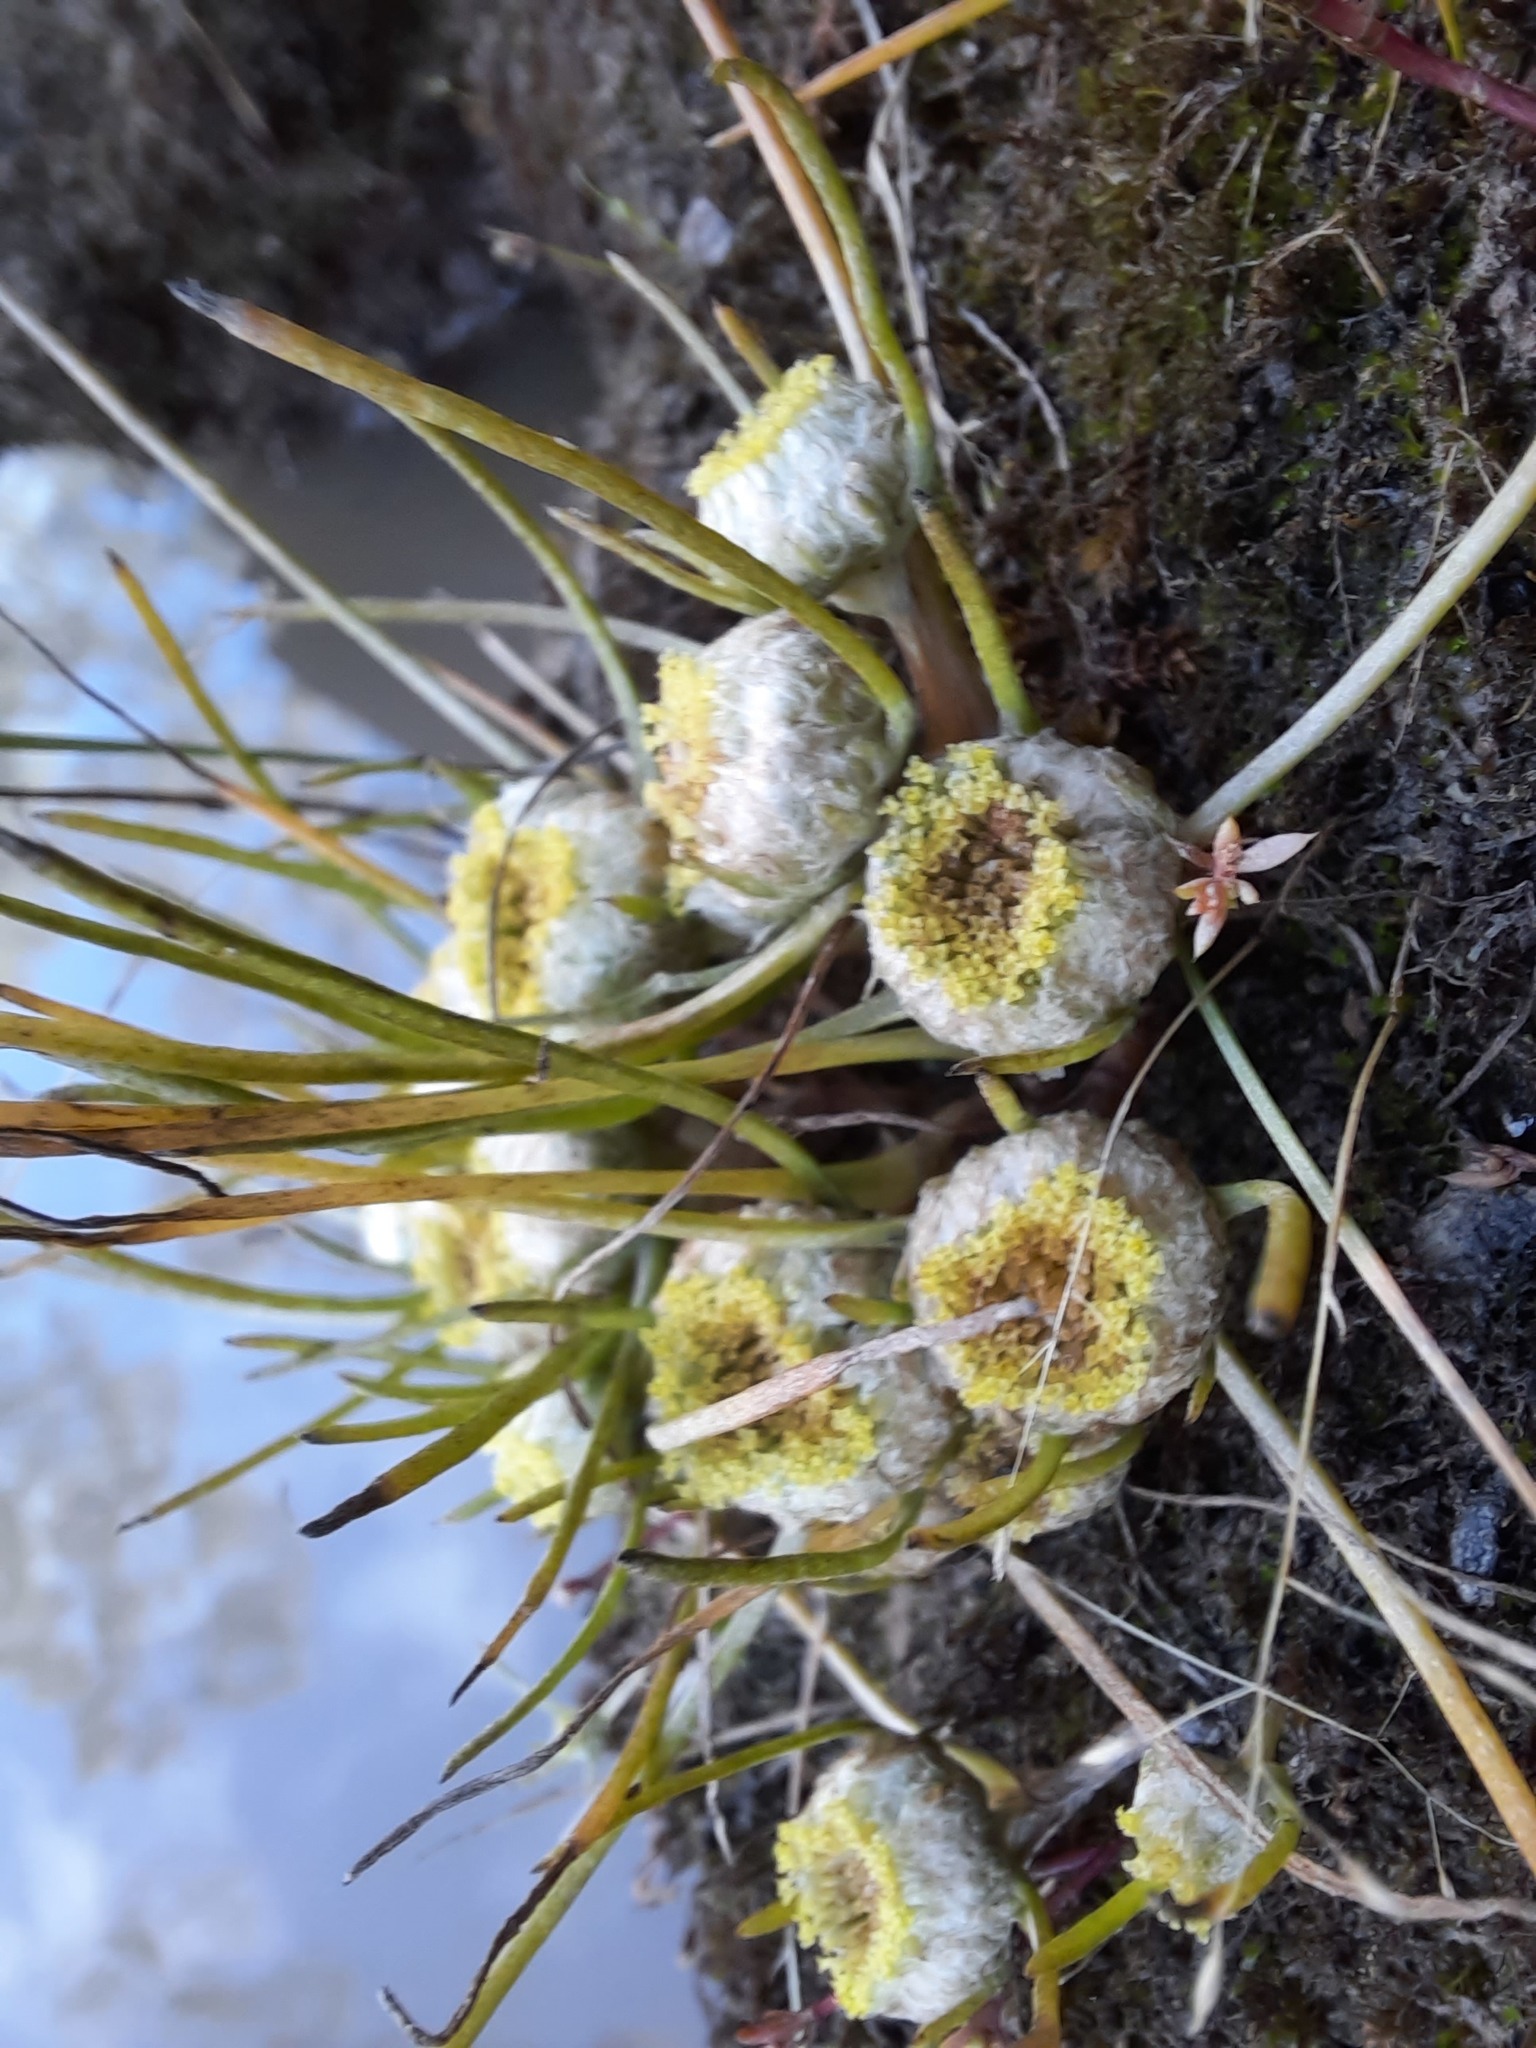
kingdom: Plantae
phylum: Tracheophyta
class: Magnoliopsida
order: Asterales
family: Asteraceae
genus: Myriocephalus
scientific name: Myriocephalus rhizocephalus
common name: Tufted woolly-heads
